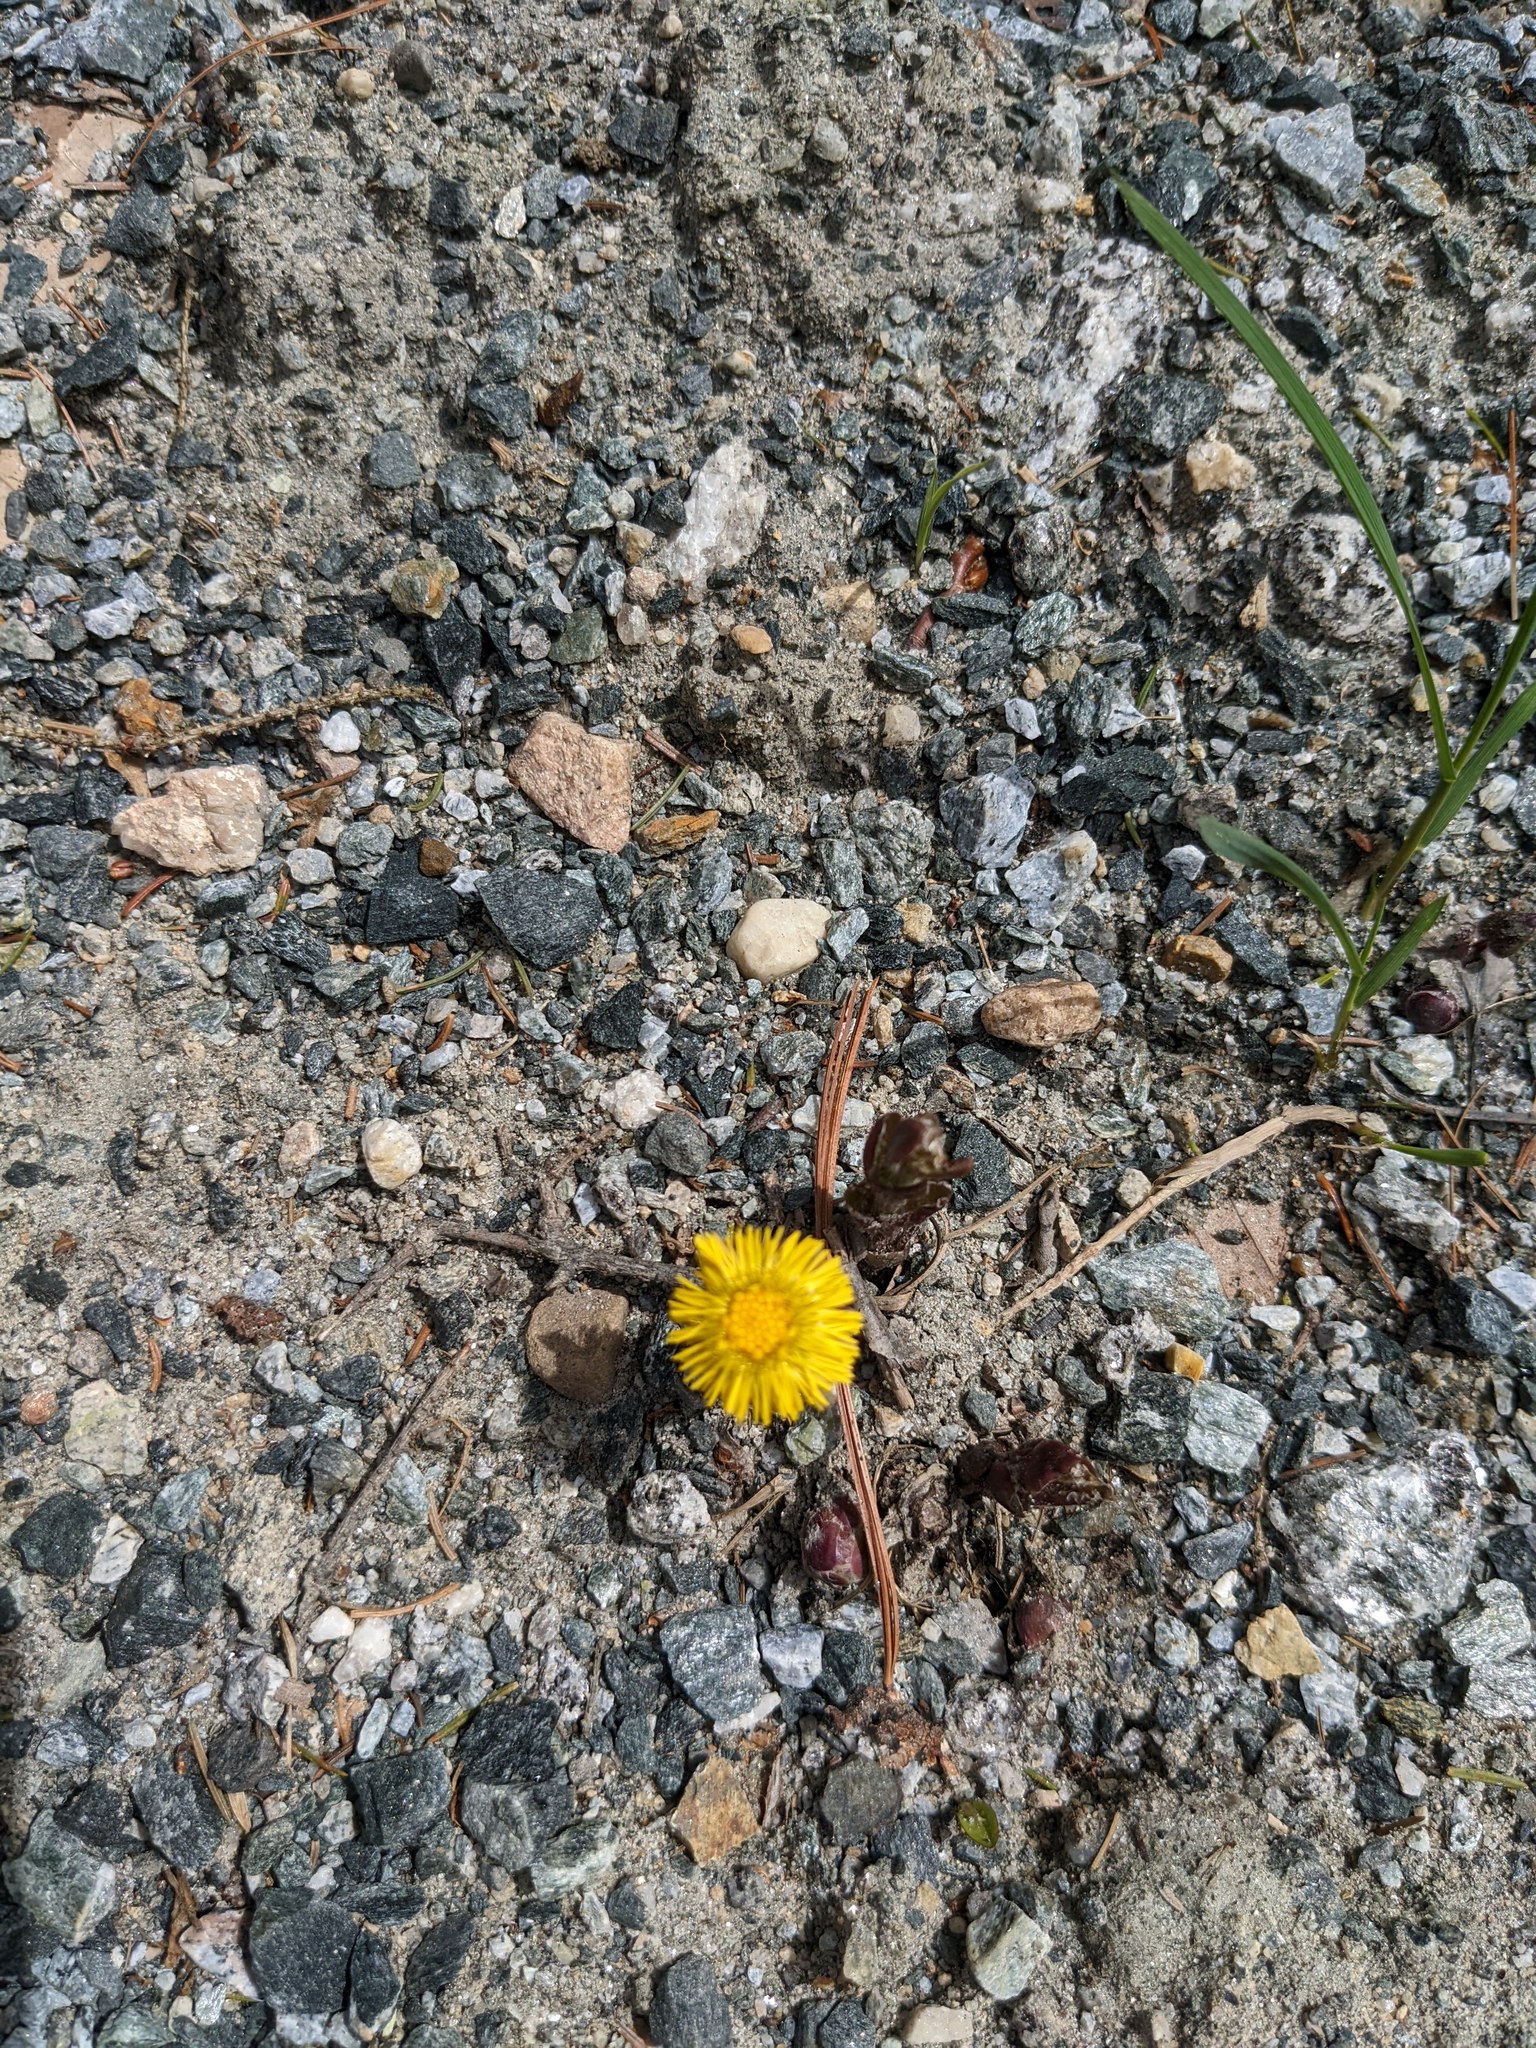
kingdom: Plantae
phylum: Tracheophyta
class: Magnoliopsida
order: Asterales
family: Asteraceae
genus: Tussilago
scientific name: Tussilago farfara
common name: Coltsfoot
